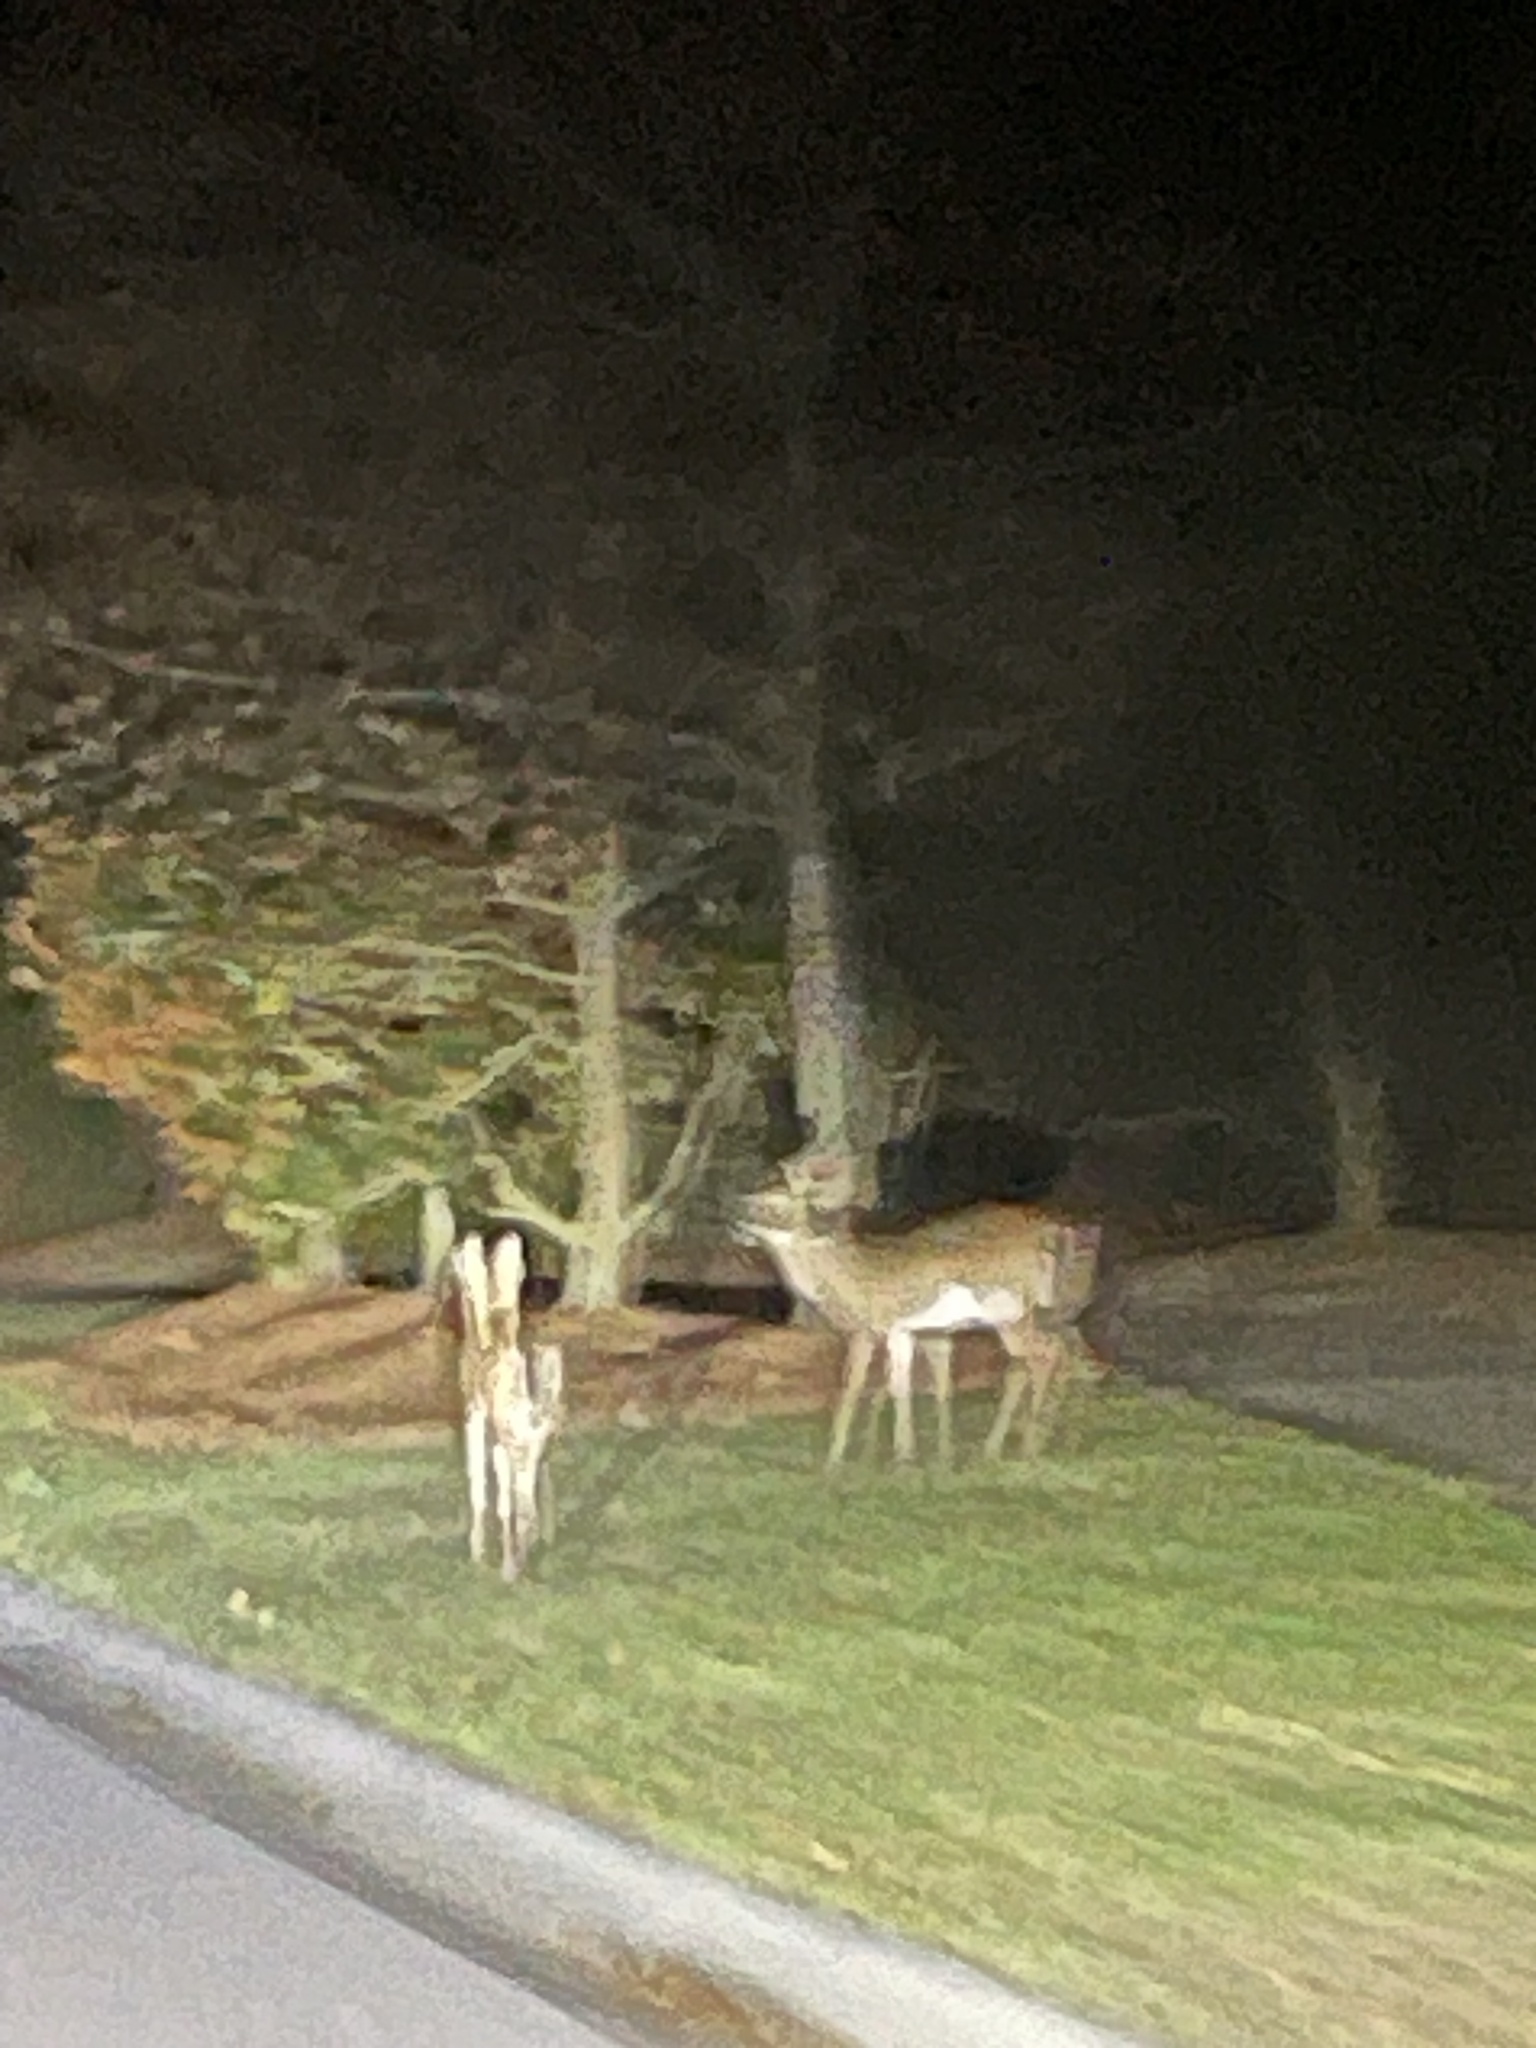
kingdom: Animalia
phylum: Chordata
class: Mammalia
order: Artiodactyla
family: Cervidae
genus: Odocoileus
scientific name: Odocoileus virginianus
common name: White-tailed deer
